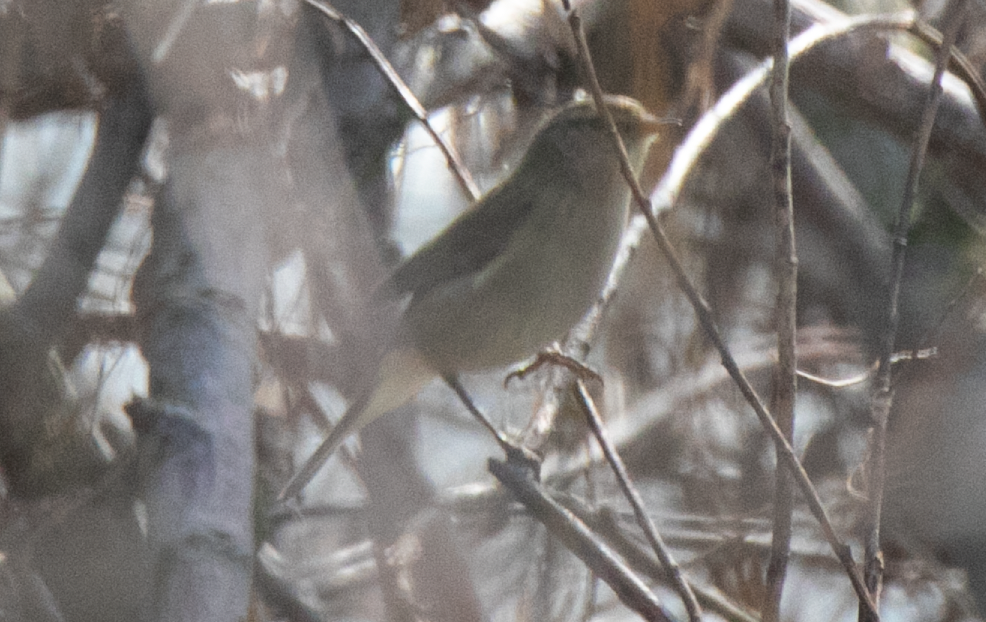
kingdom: Animalia
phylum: Chordata
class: Aves
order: Passeriformes
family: Phylloscopidae
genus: Phylloscopus
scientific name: Phylloscopus collybita
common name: Common chiffchaff
